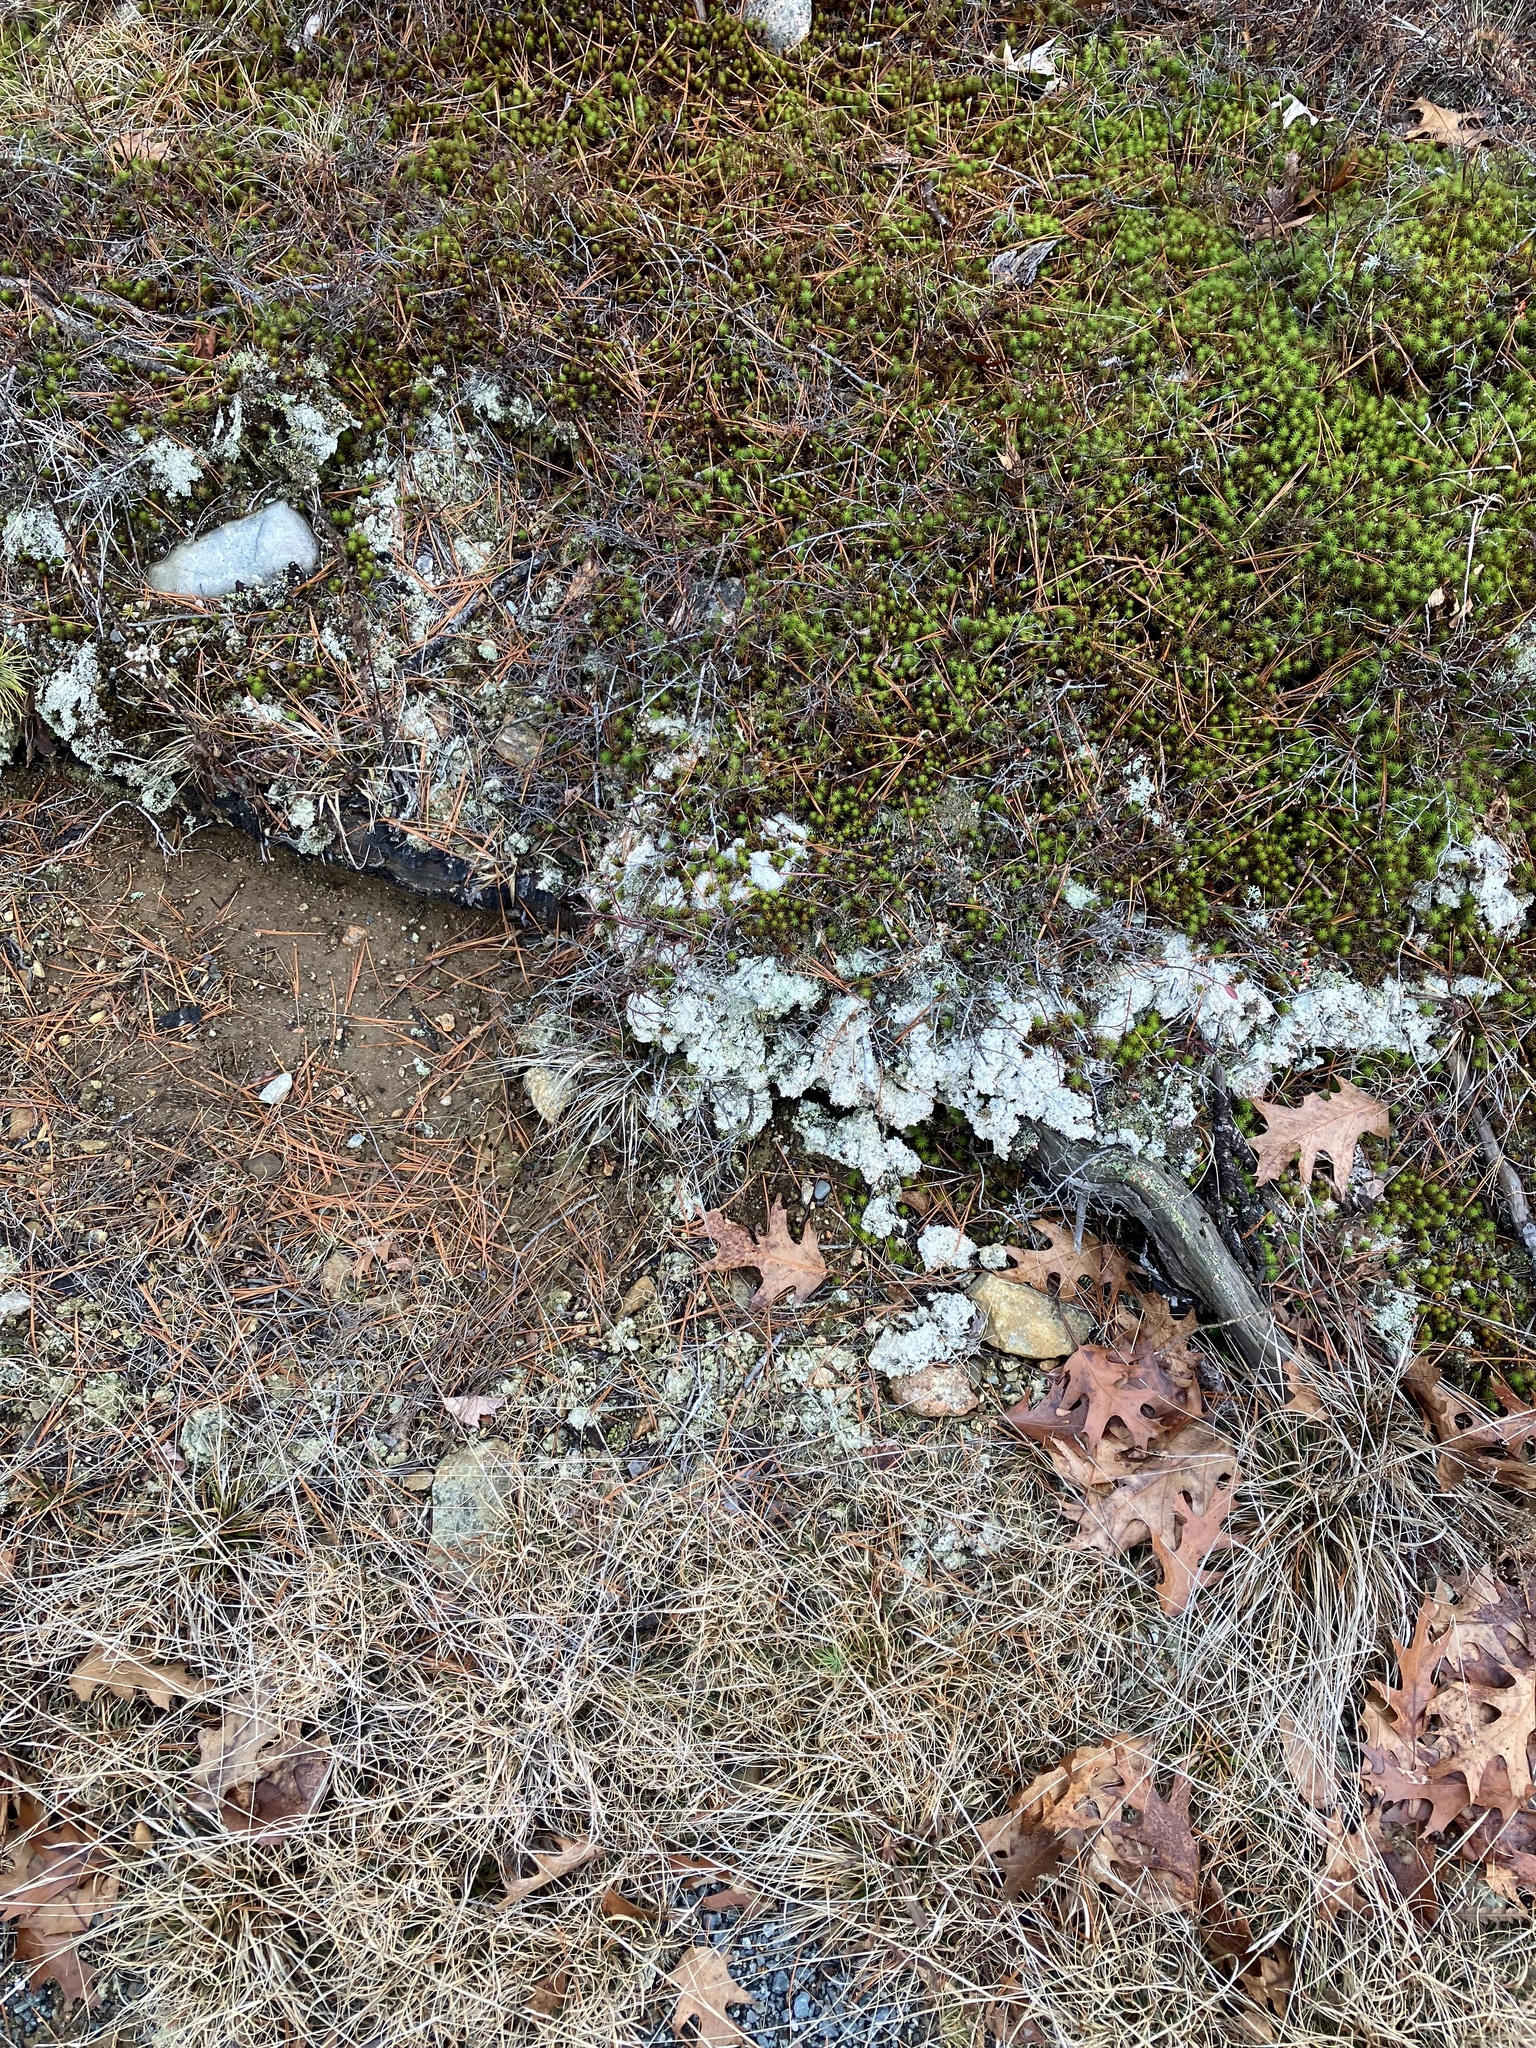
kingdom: Fungi
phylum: Ascomycota
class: Lecanoromycetes
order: Pertusariales
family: Icmadophilaceae
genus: Dibaeis
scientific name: Dibaeis baeomyces
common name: Pink earth lichen
